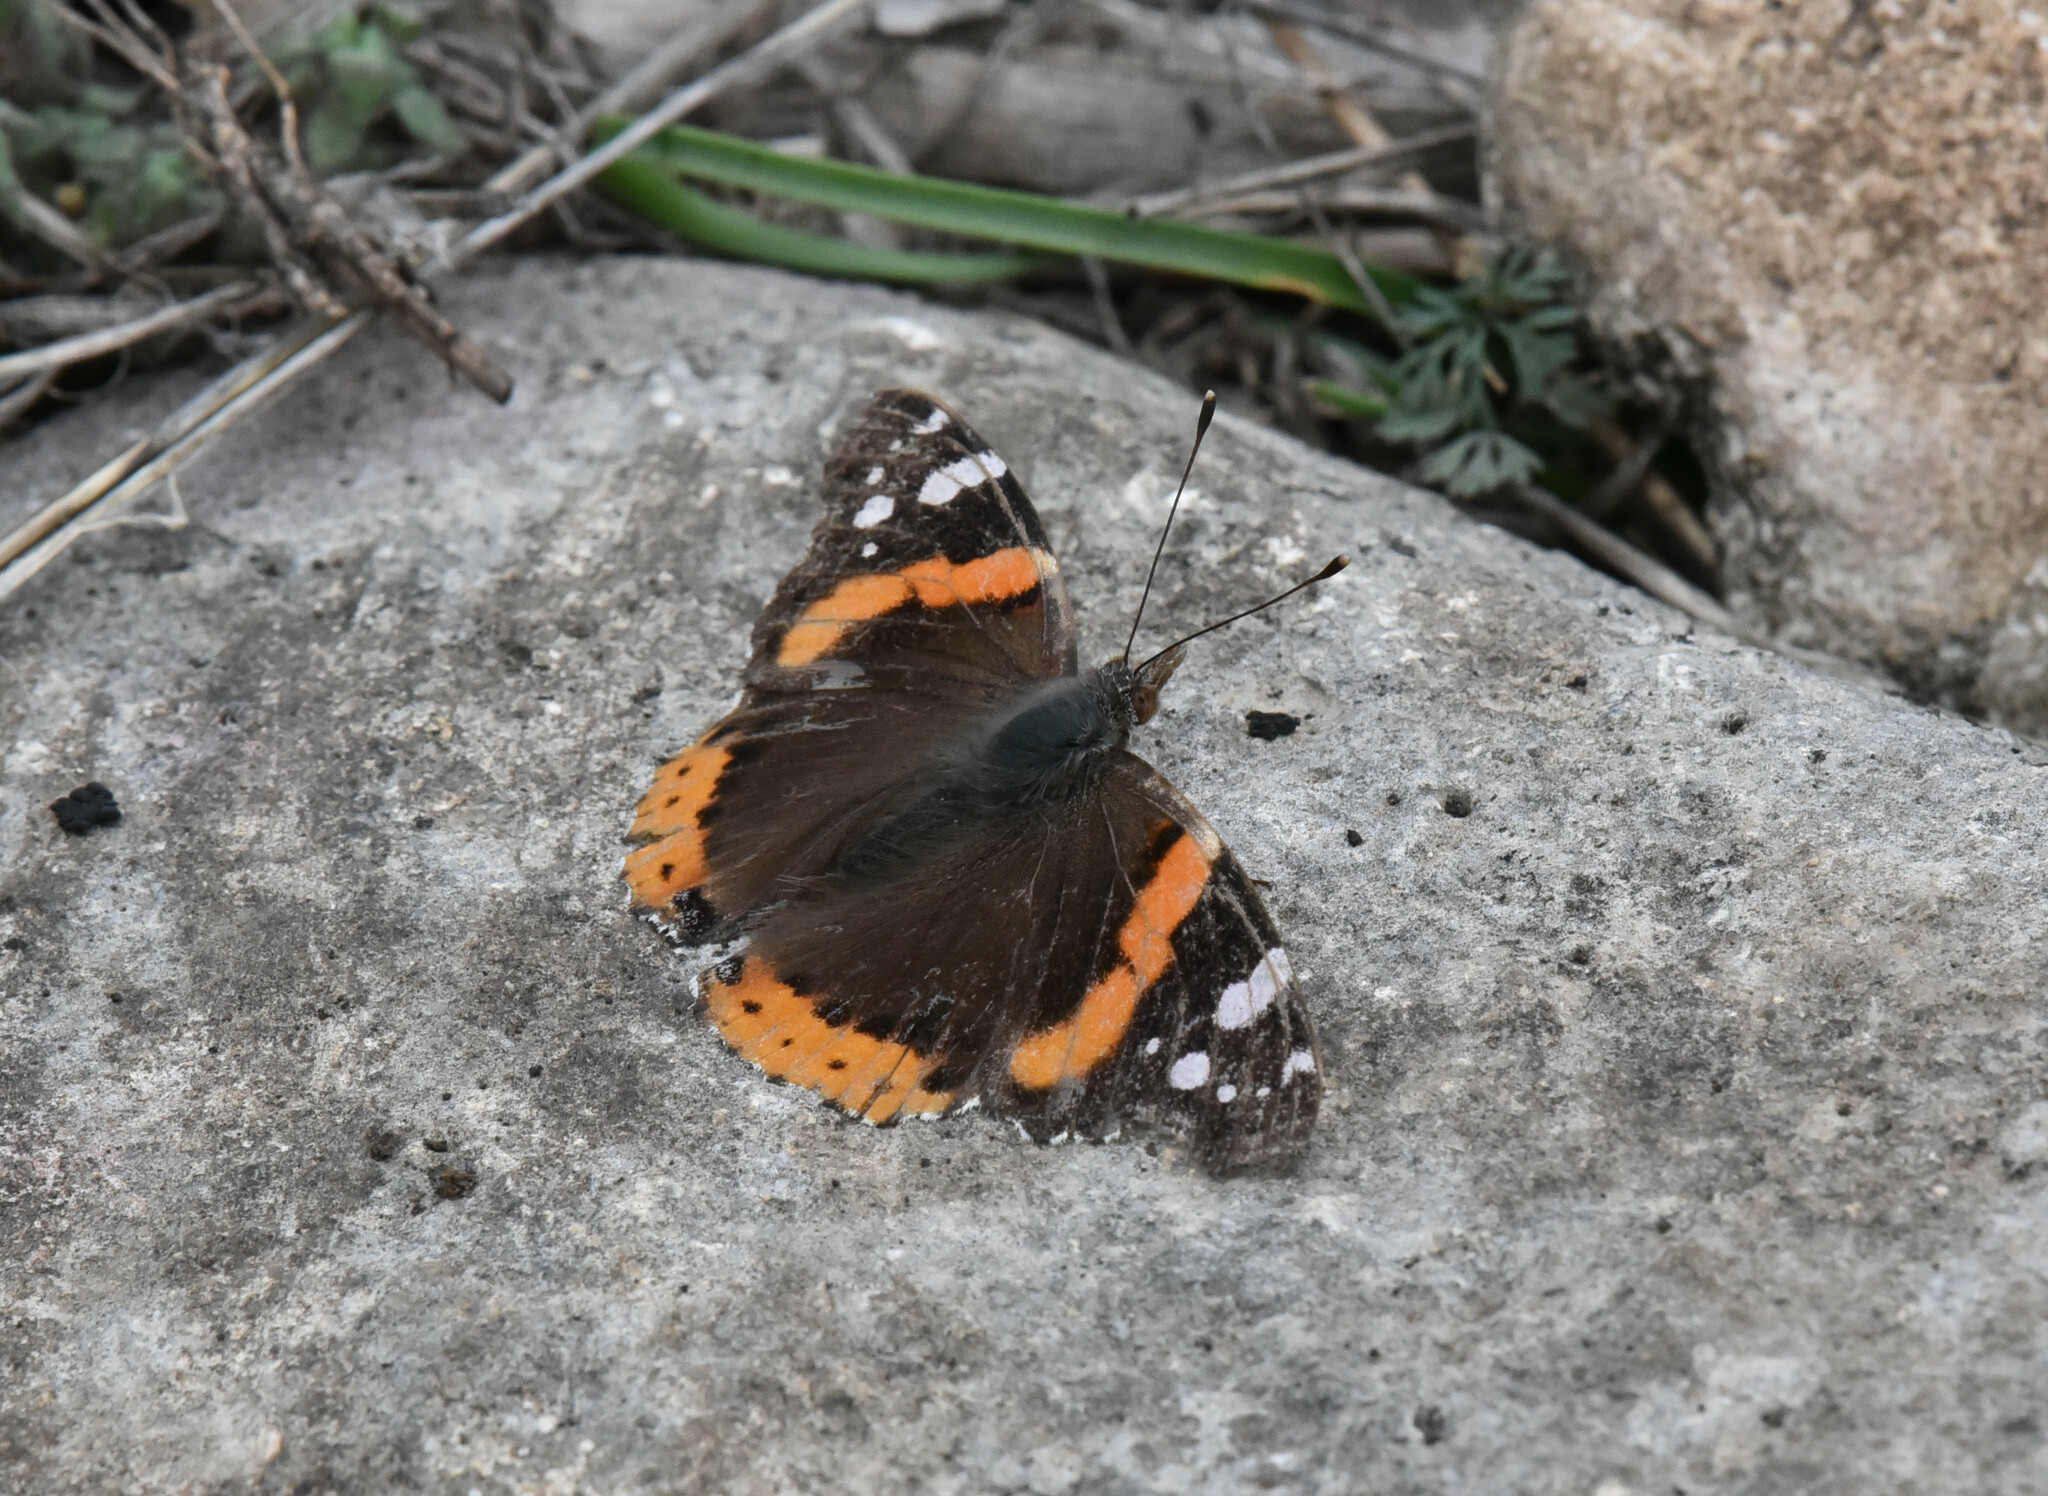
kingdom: Animalia
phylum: Arthropoda
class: Insecta
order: Lepidoptera
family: Nymphalidae
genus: Vanessa
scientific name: Vanessa atalanta
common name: Red admiral
